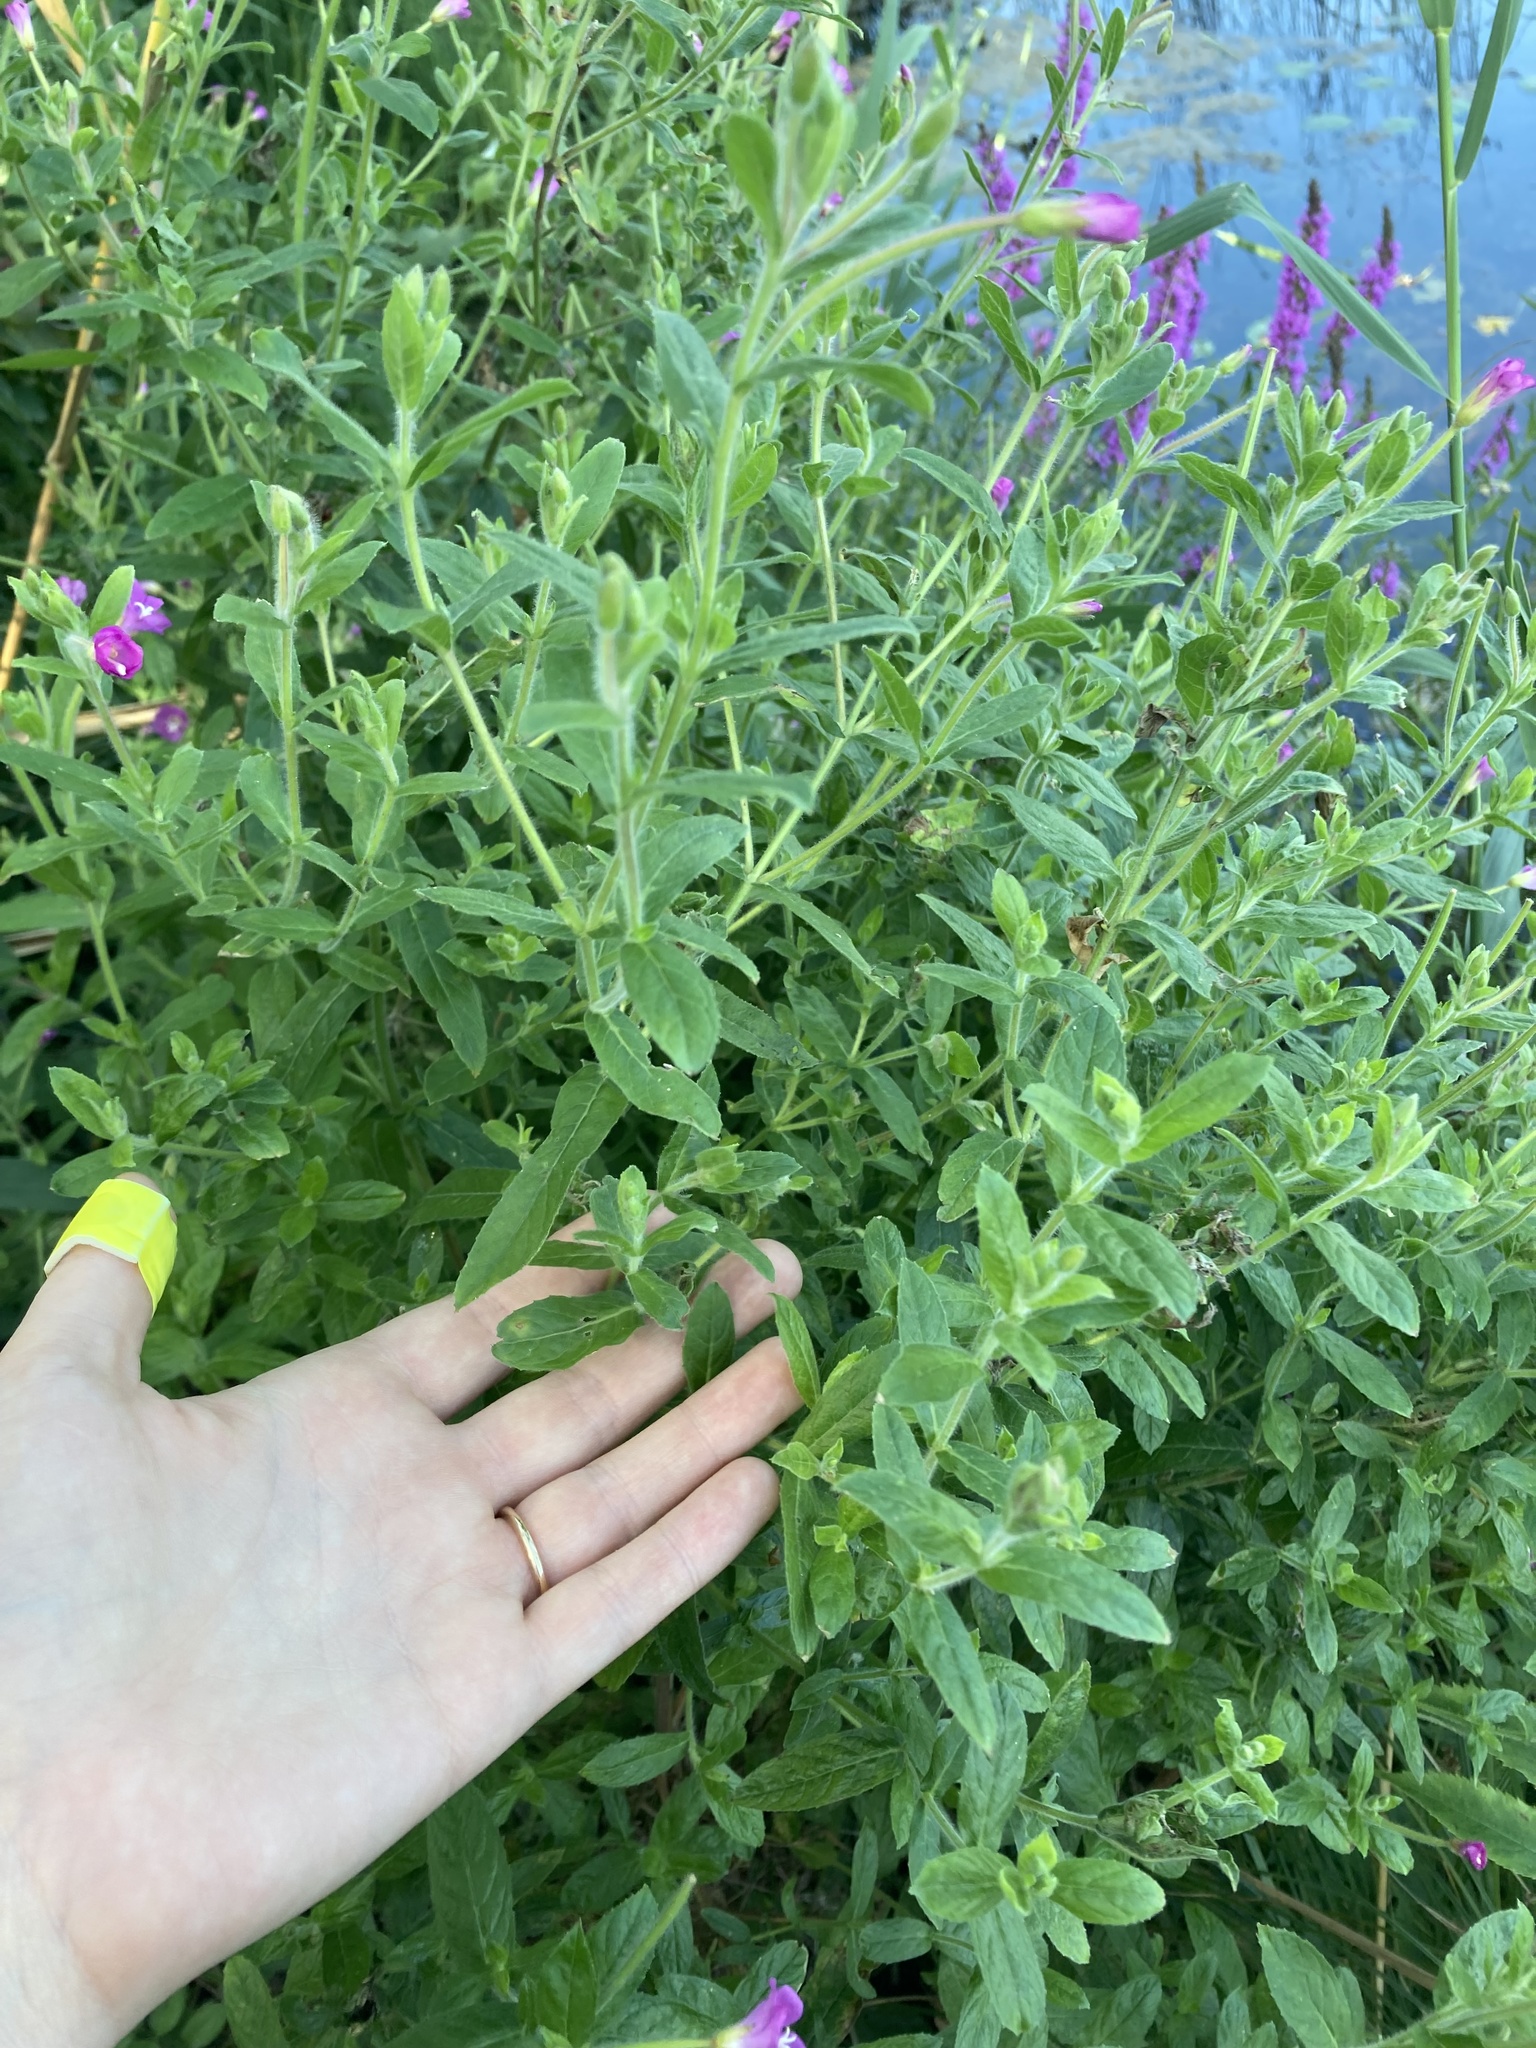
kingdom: Plantae
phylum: Tracheophyta
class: Magnoliopsida
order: Myrtales
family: Onagraceae
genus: Epilobium
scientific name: Epilobium hirsutum
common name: Great willowherb
